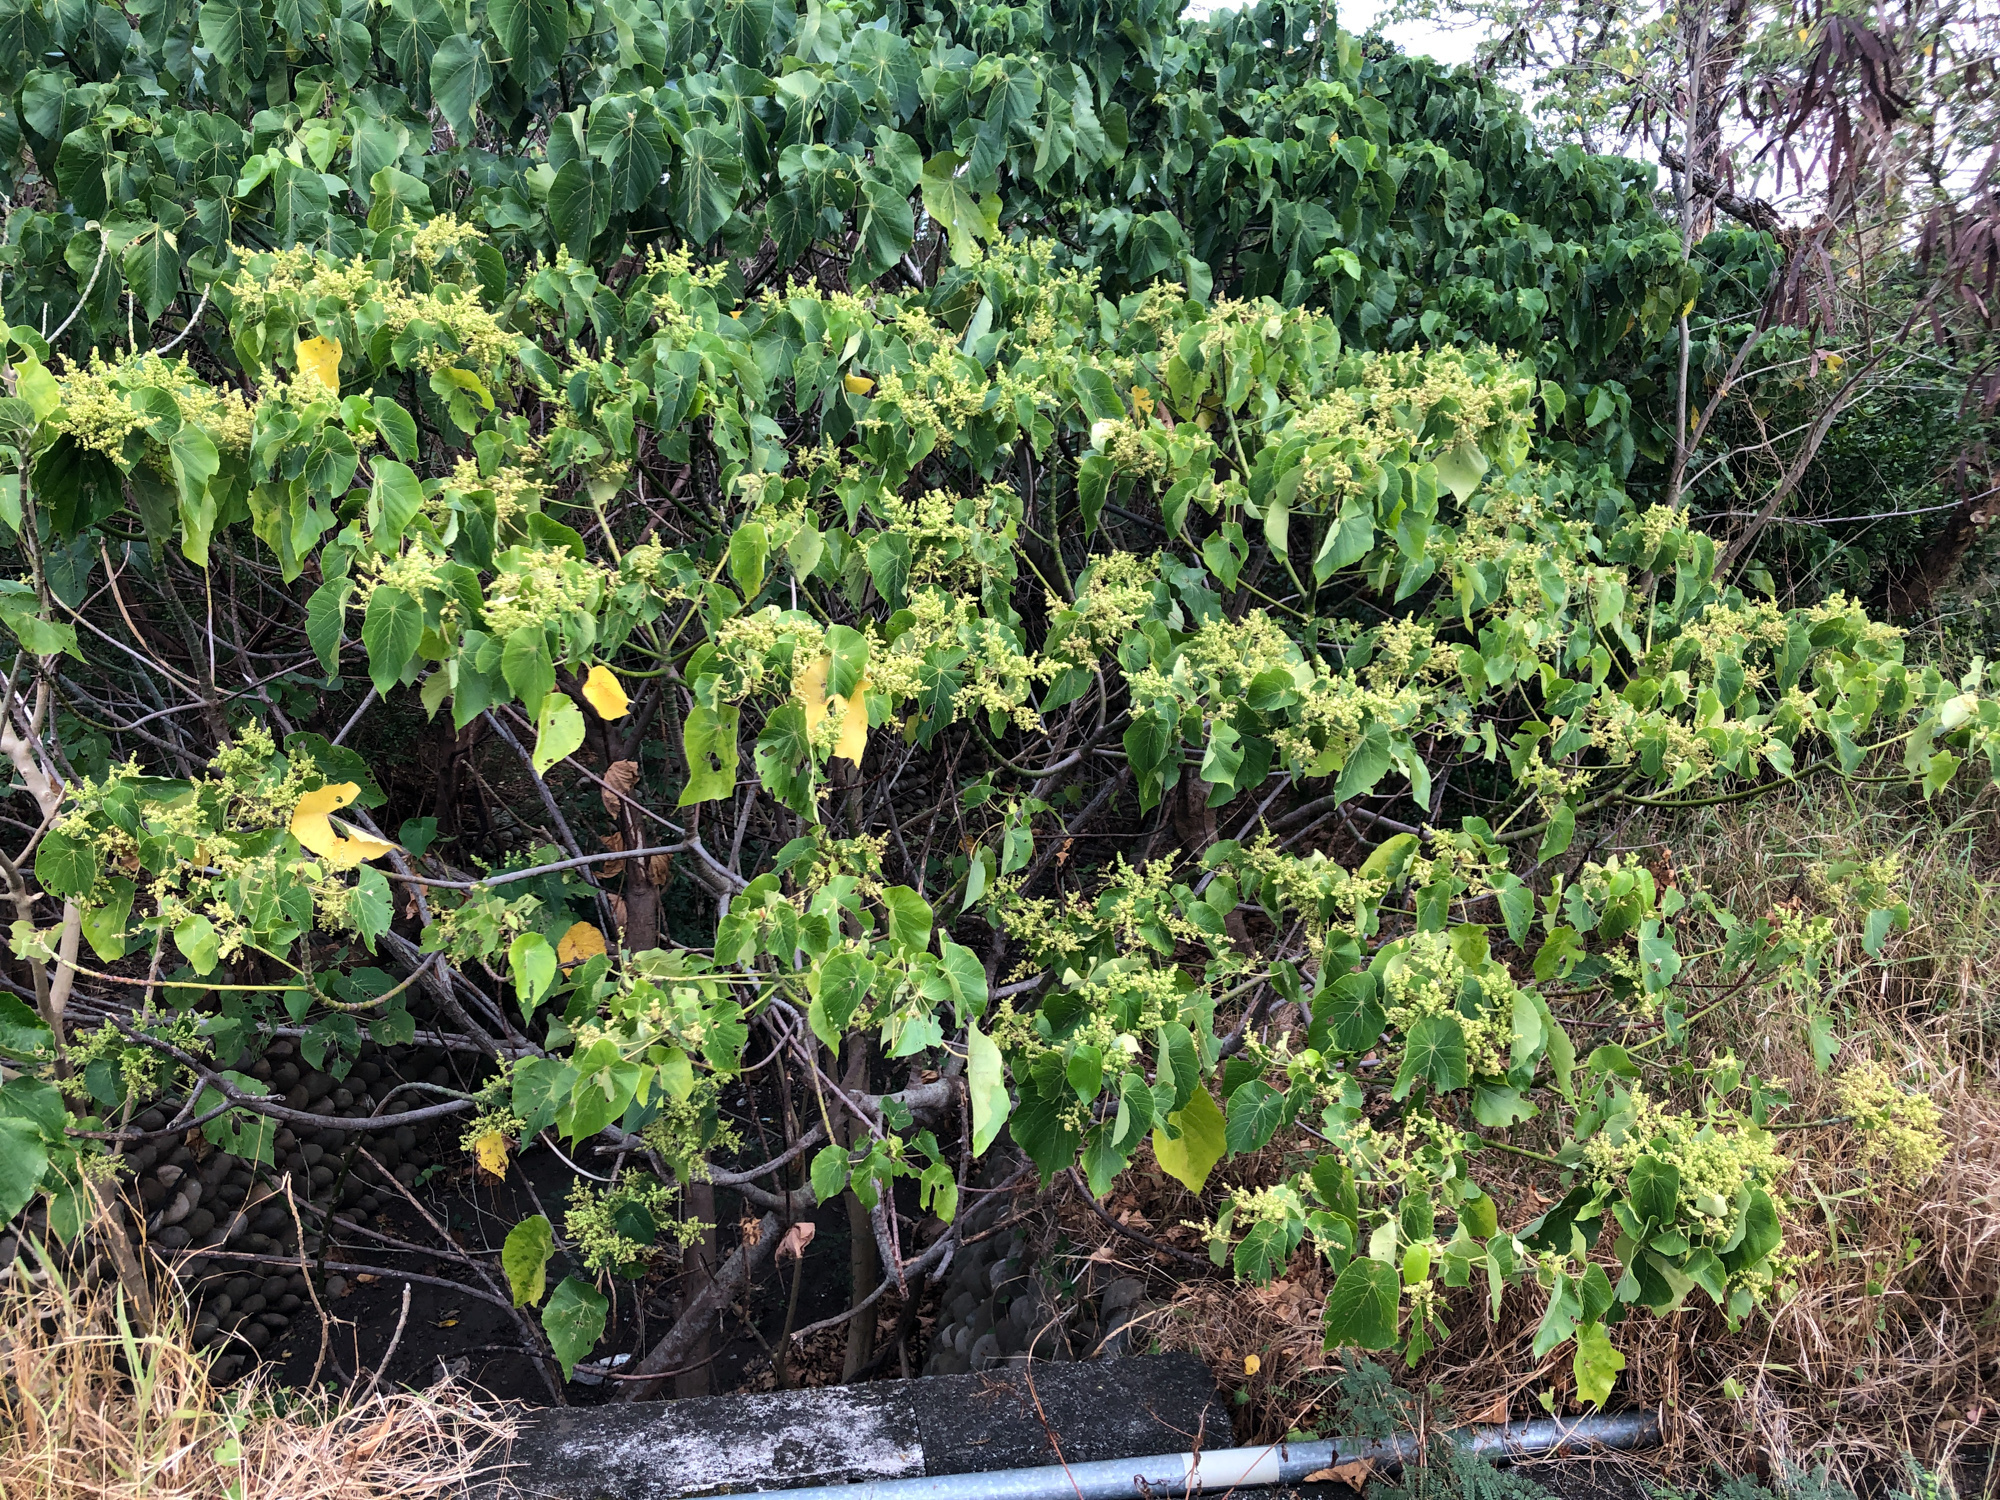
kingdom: Plantae
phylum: Tracheophyta
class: Magnoliopsida
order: Malpighiales
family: Euphorbiaceae
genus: Macaranga
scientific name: Macaranga tanarius
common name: Parasol leaf tree
